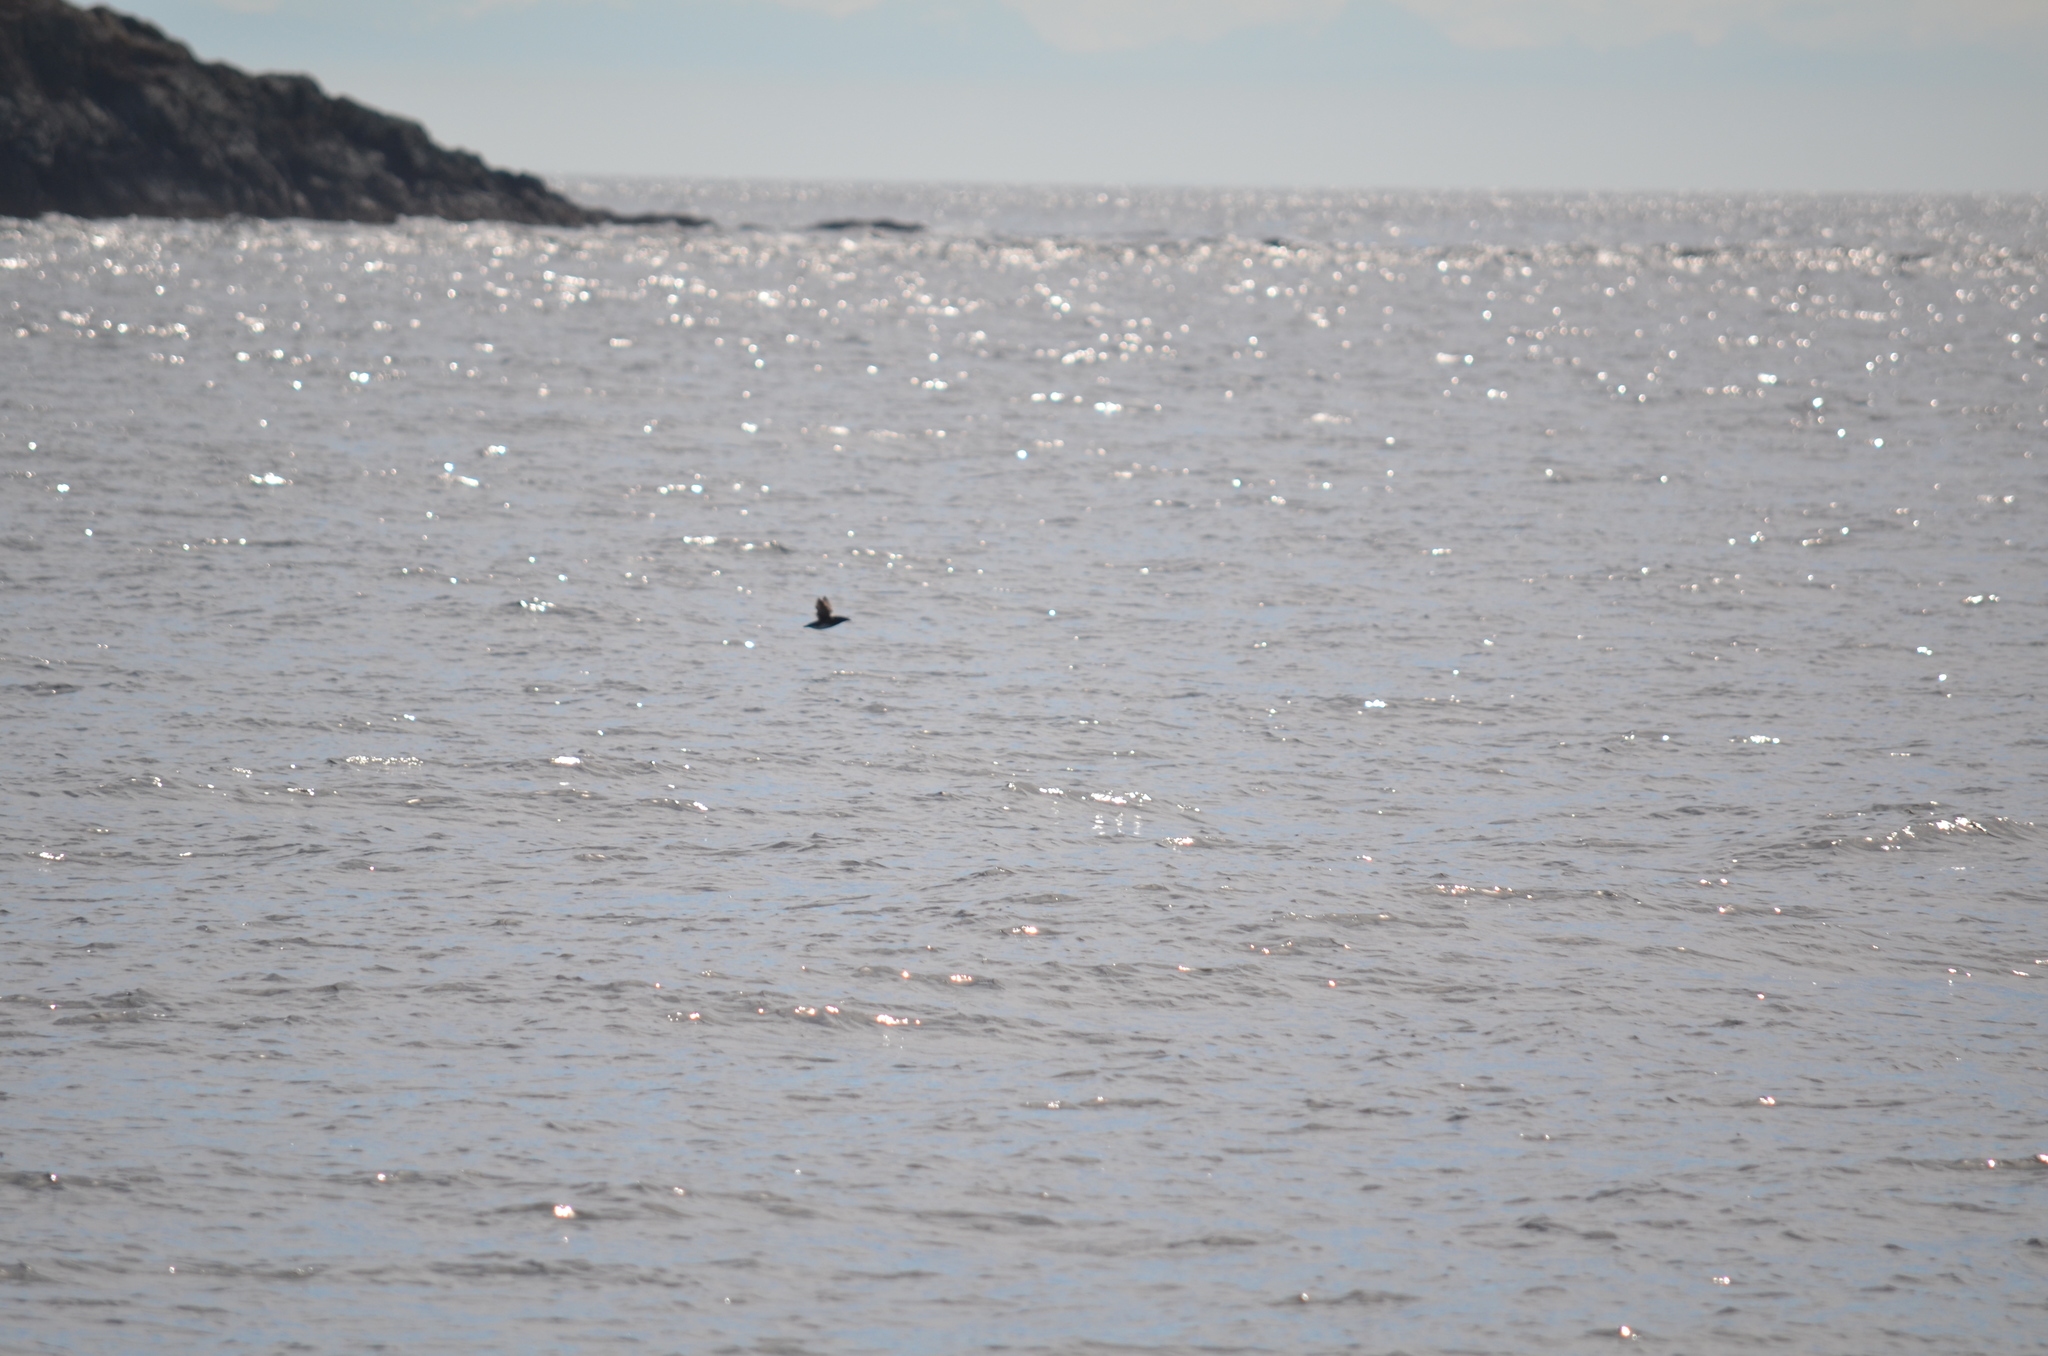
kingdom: Animalia
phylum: Chordata
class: Aves
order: Charadriiformes
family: Alcidae
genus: Cerorhinca
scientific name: Cerorhinca monocerata
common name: Rhinoceros auklet
